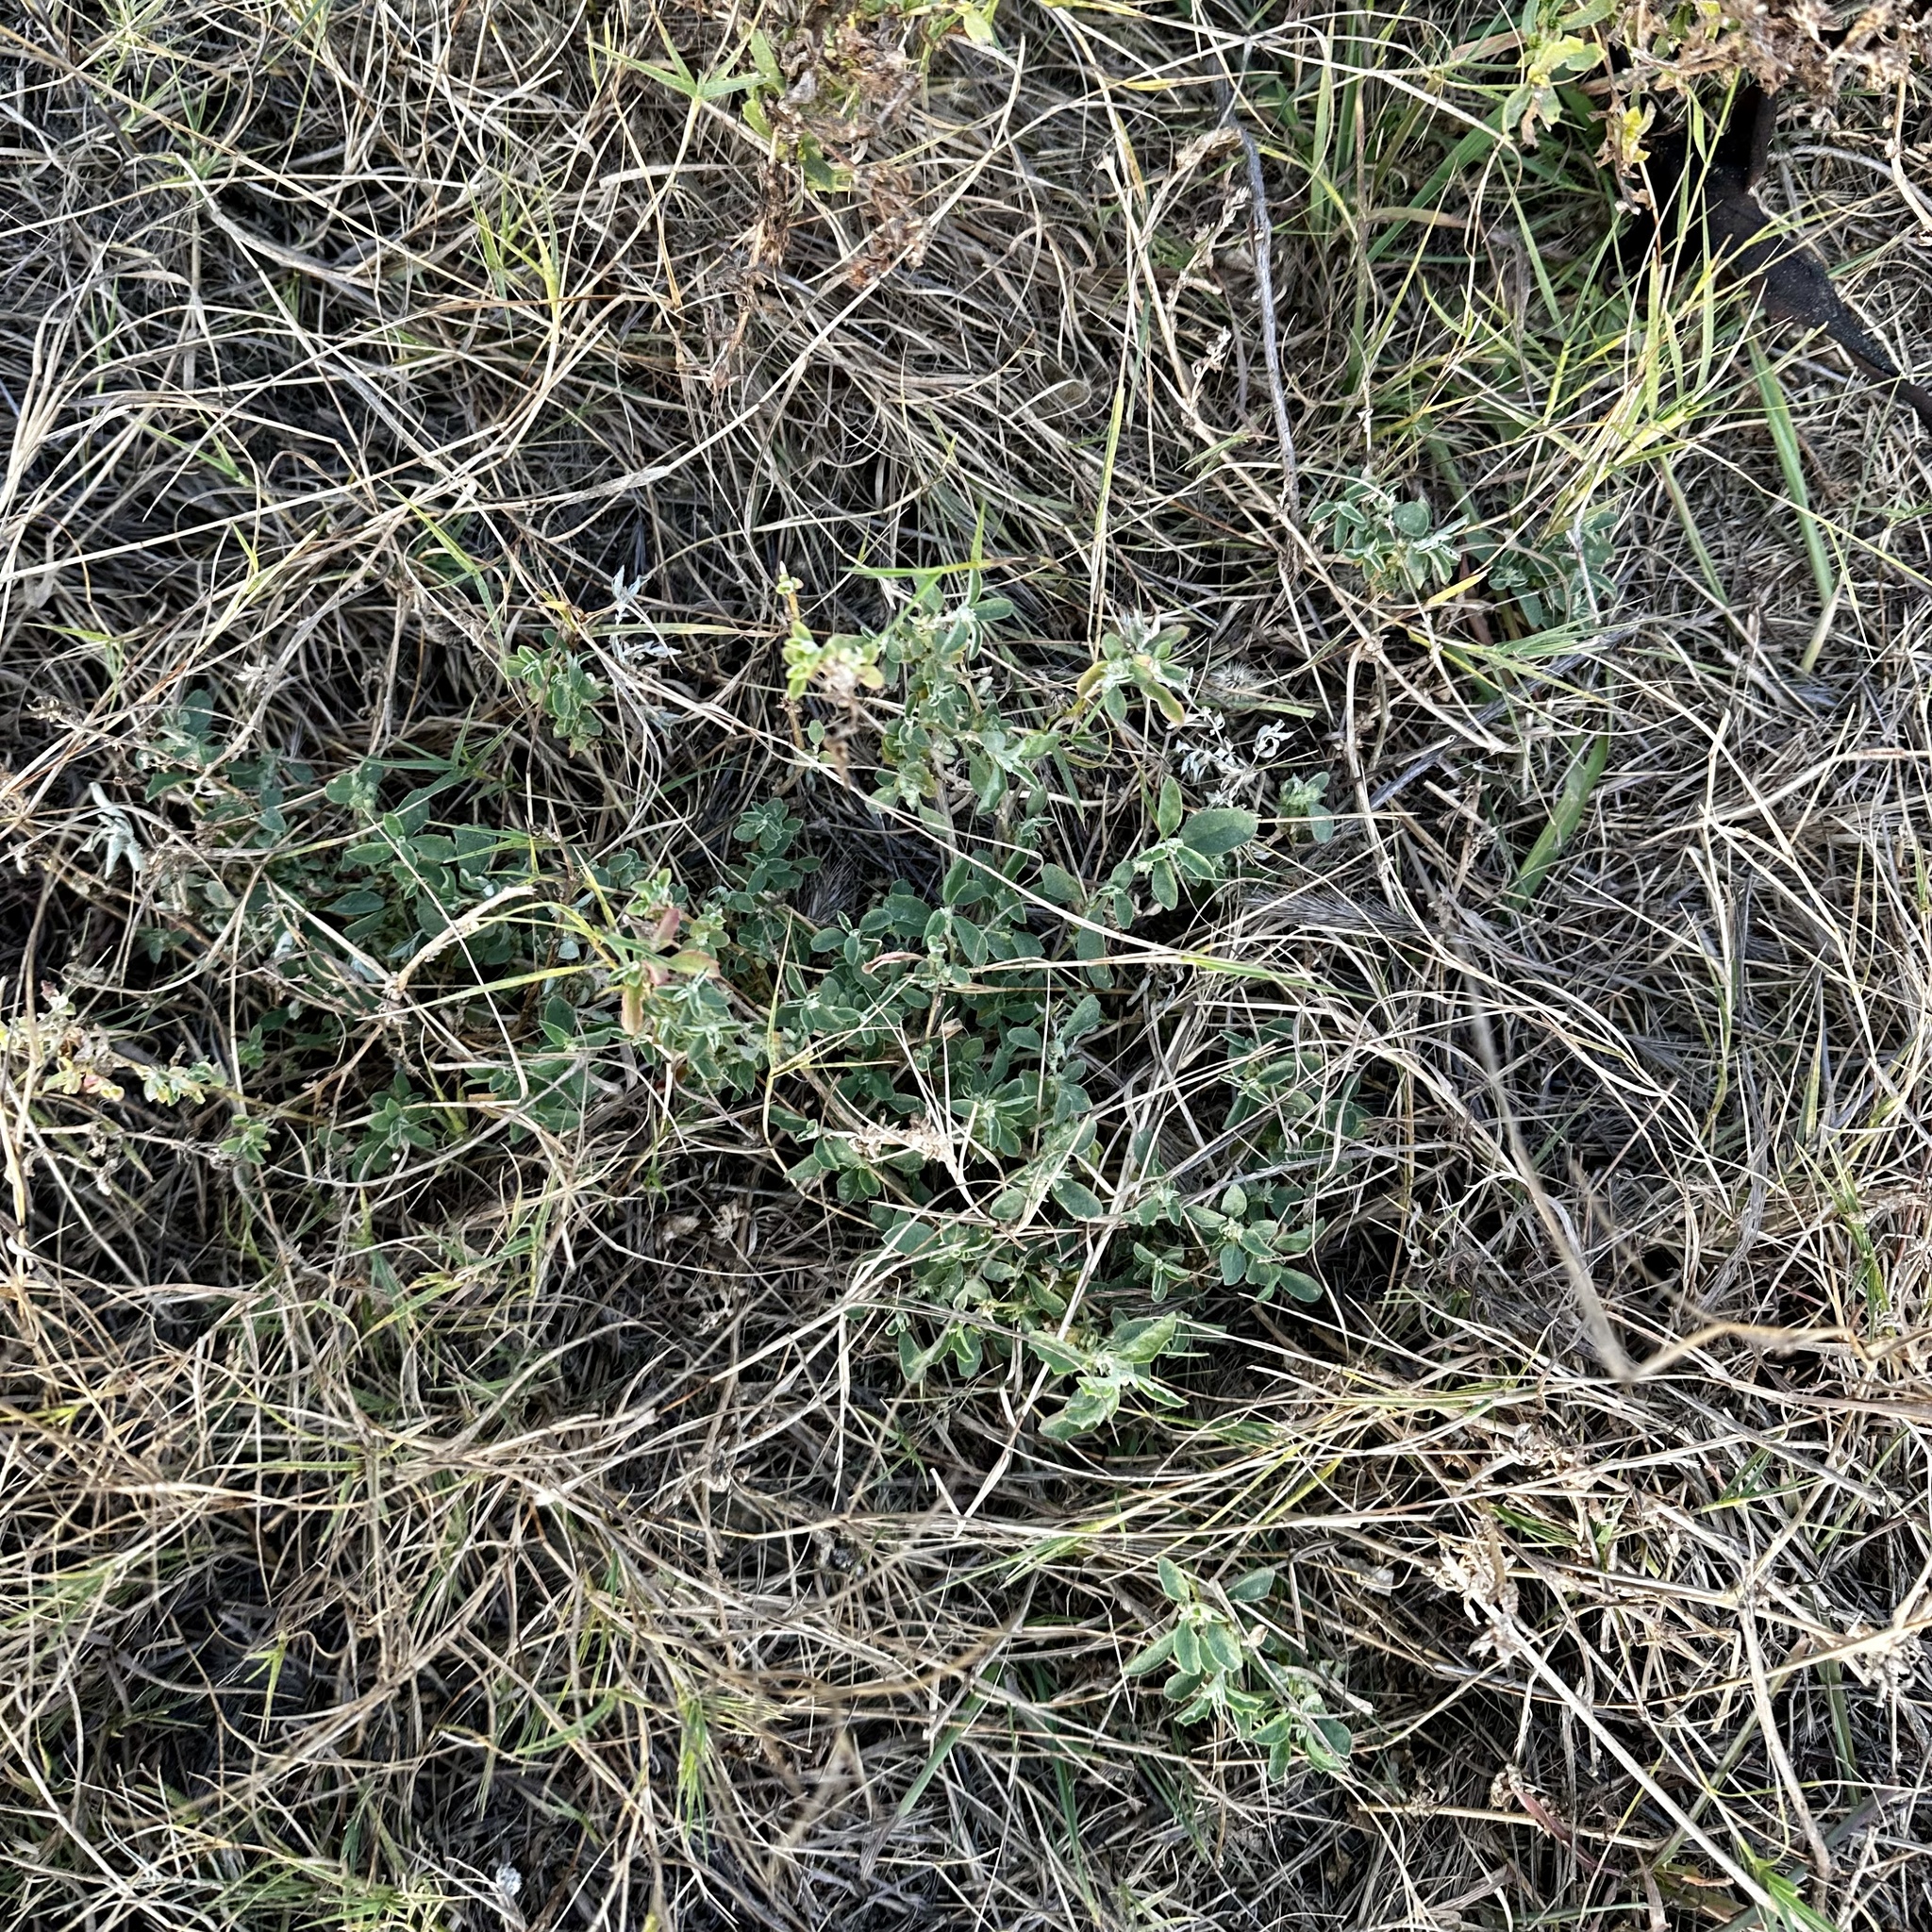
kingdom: Plantae
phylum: Tracheophyta
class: Magnoliopsida
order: Caryophyllales
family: Amaranthaceae
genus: Atriplex
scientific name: Atriplex suberecta
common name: Australian orache
